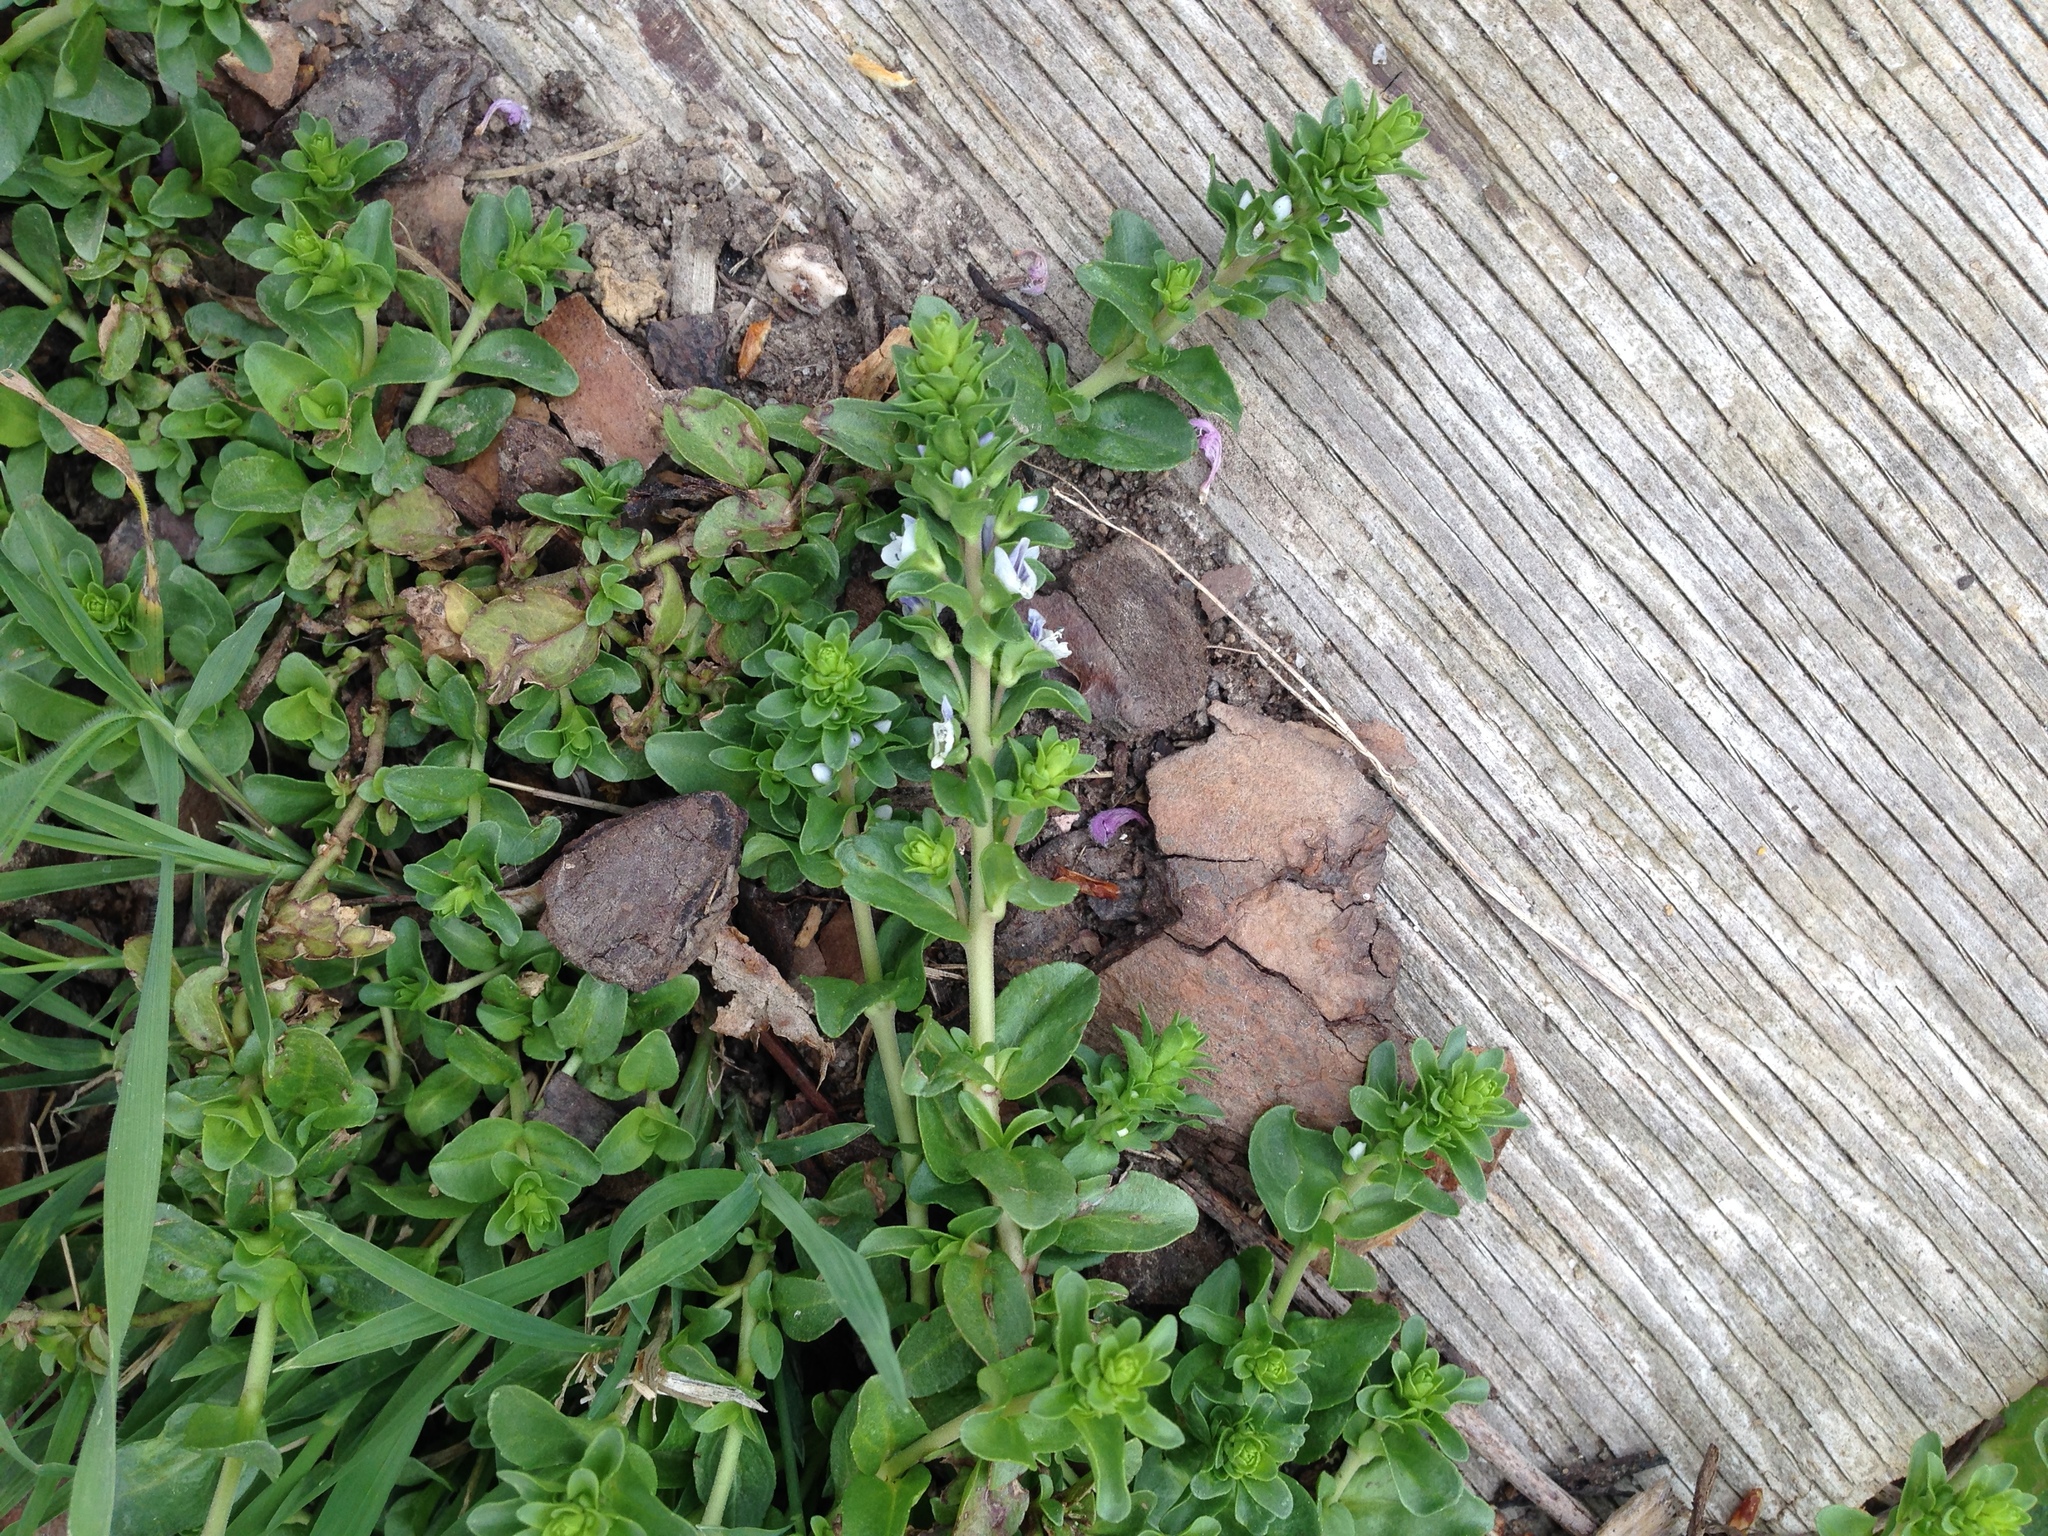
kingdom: Plantae
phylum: Tracheophyta
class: Magnoliopsida
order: Lamiales
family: Plantaginaceae
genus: Veronica
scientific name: Veronica serpyllifolia
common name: Thyme-leaved speedwell
